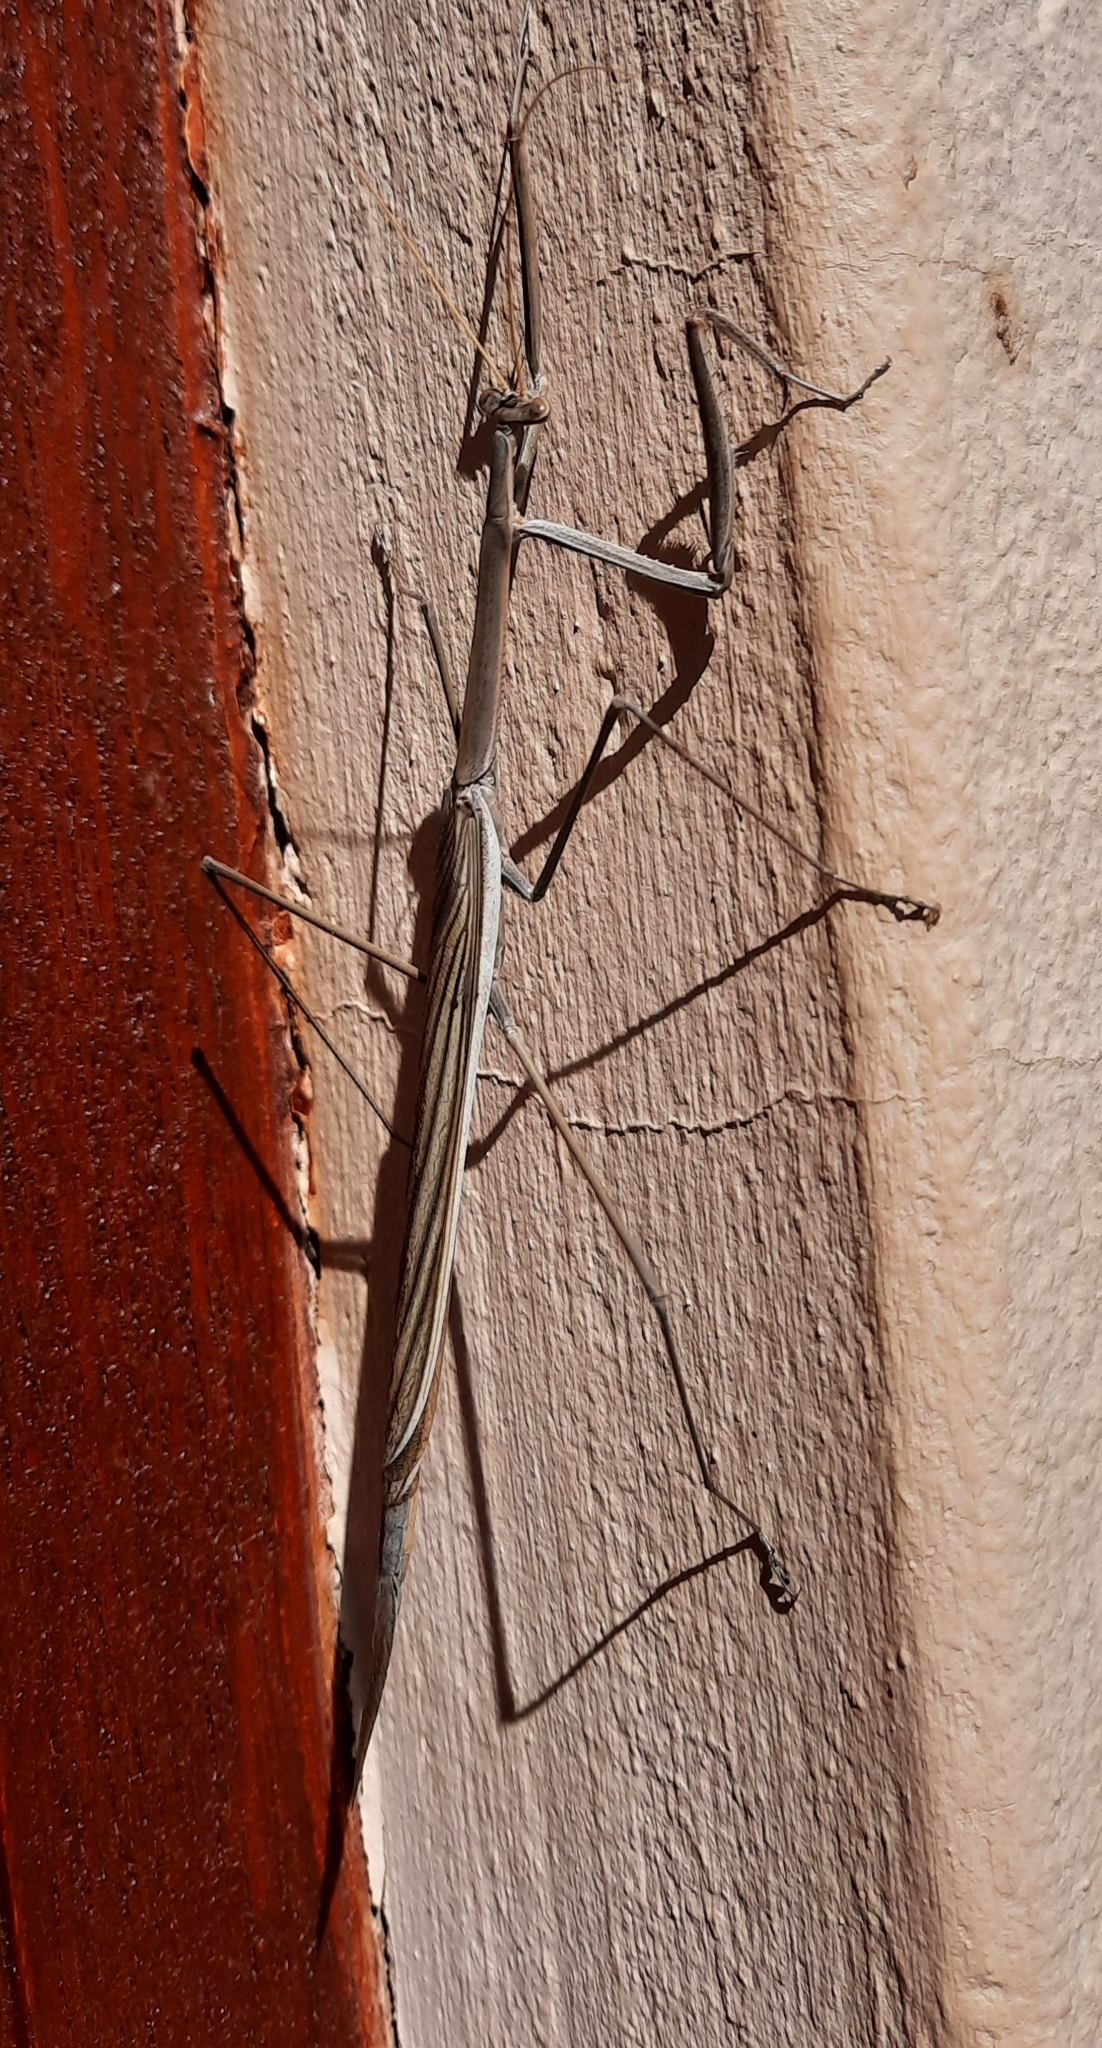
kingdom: Animalia
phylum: Arthropoda
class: Insecta
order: Mantodea
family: Rivetinidae
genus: Ischnomantis
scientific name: Ischnomantis fatiloqua
